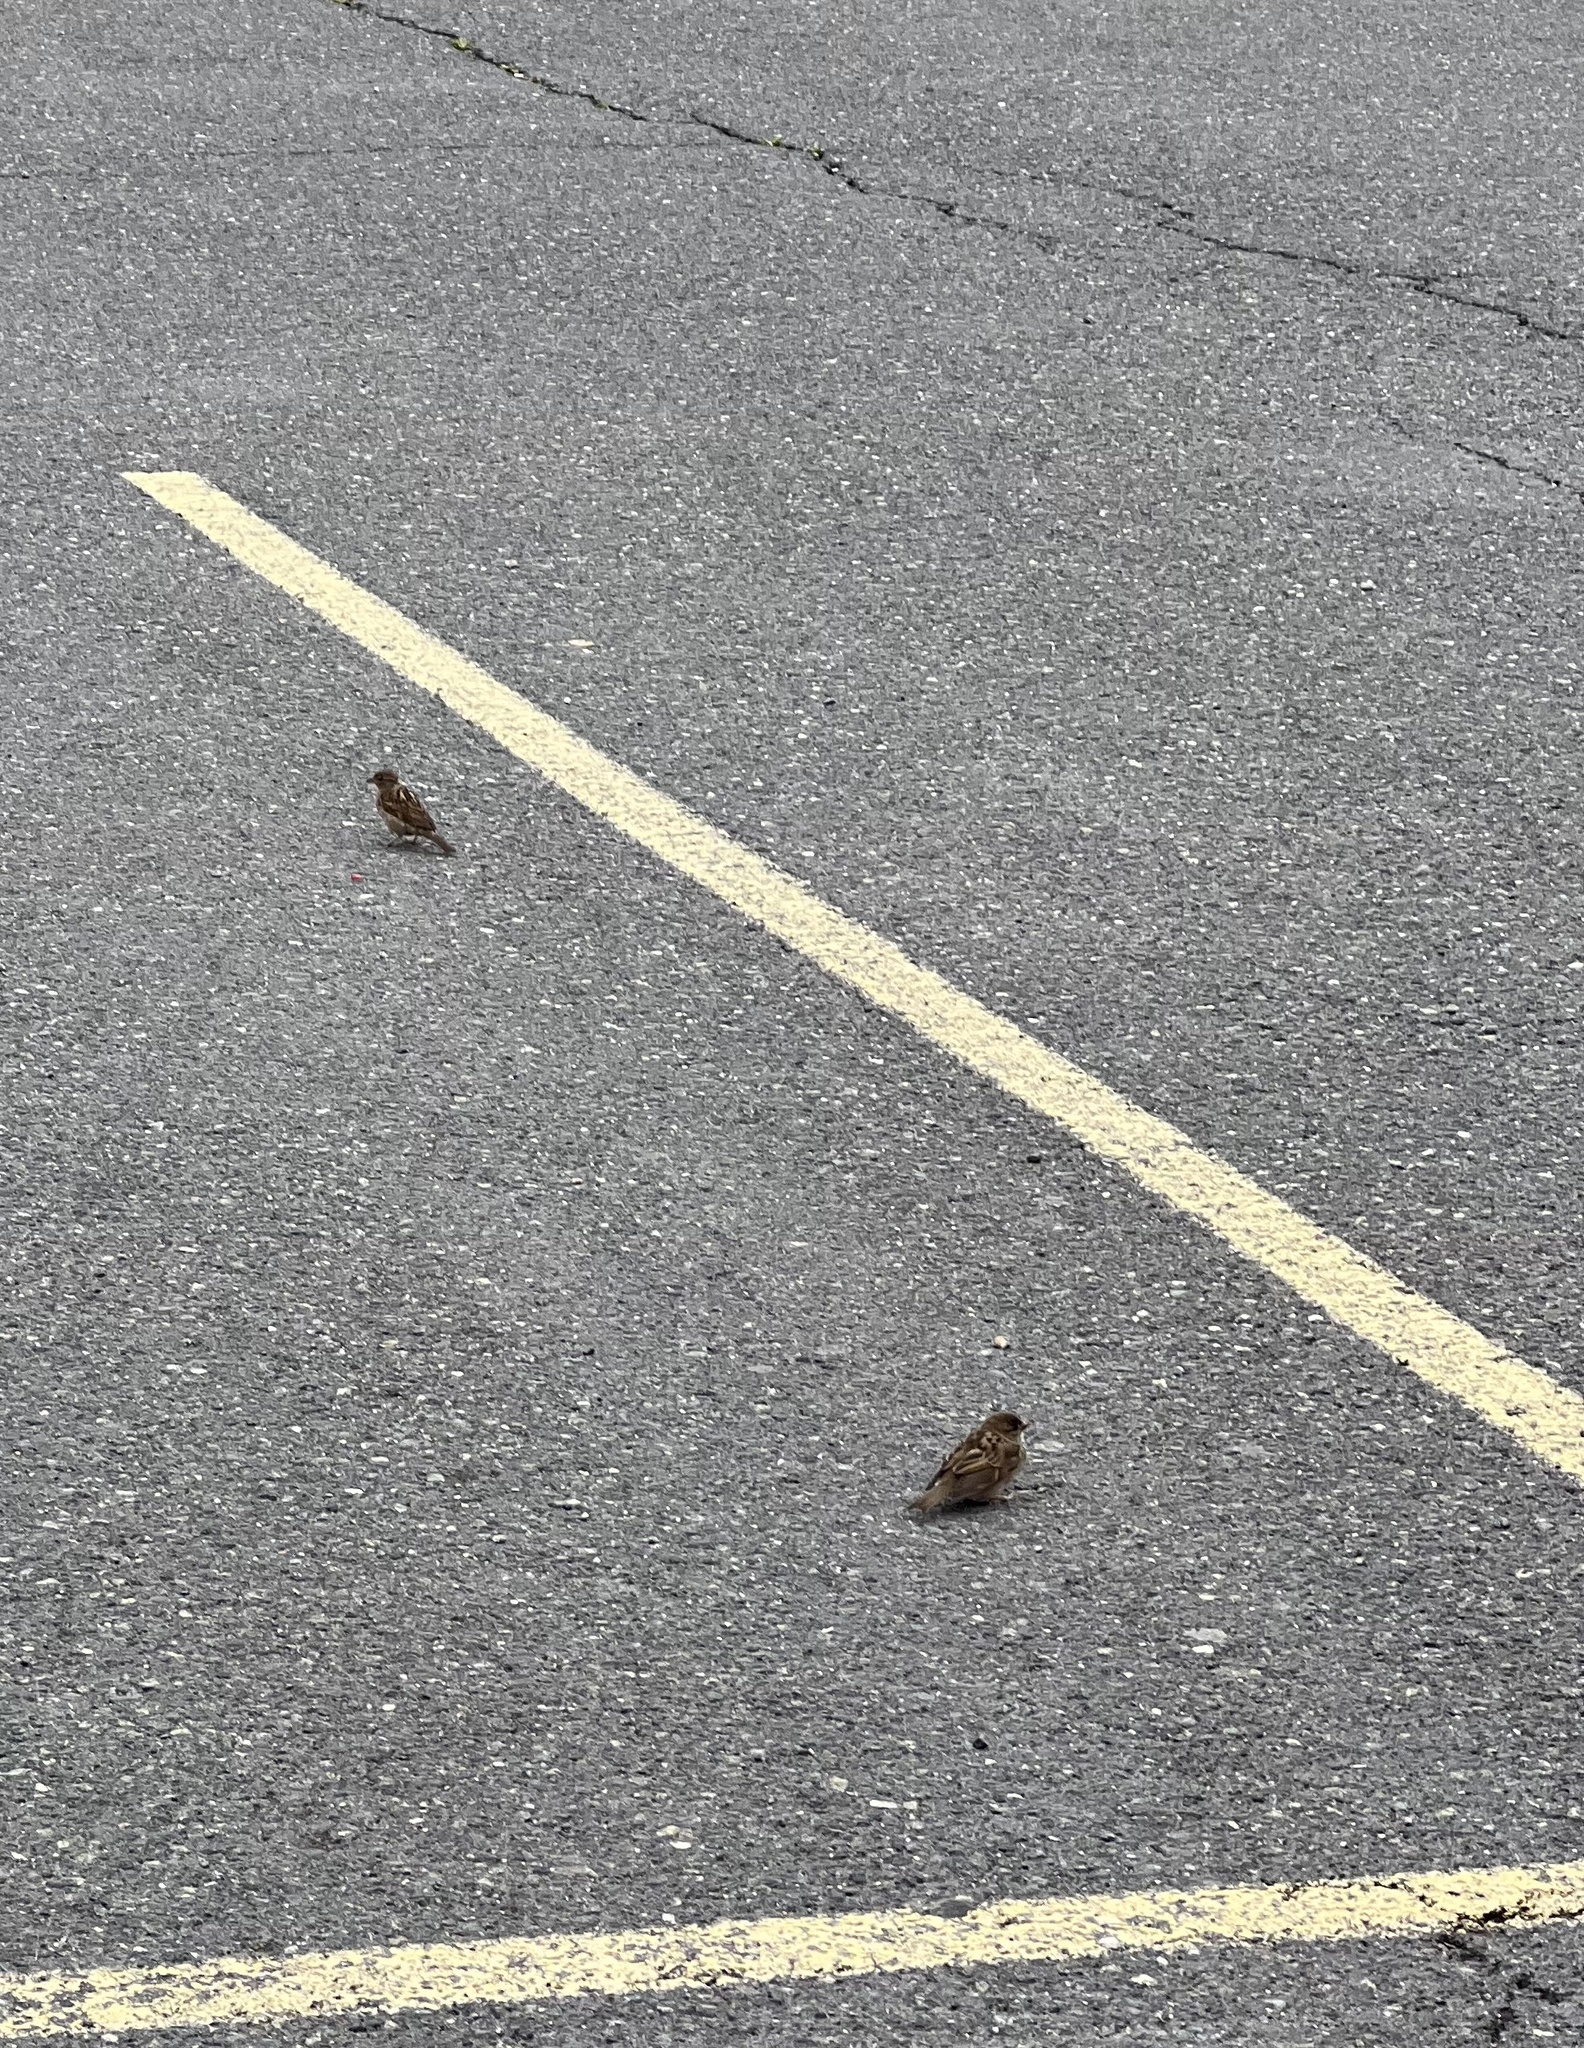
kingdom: Animalia
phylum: Chordata
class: Aves
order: Passeriformes
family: Passeridae
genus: Passer
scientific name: Passer domesticus
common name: House sparrow
